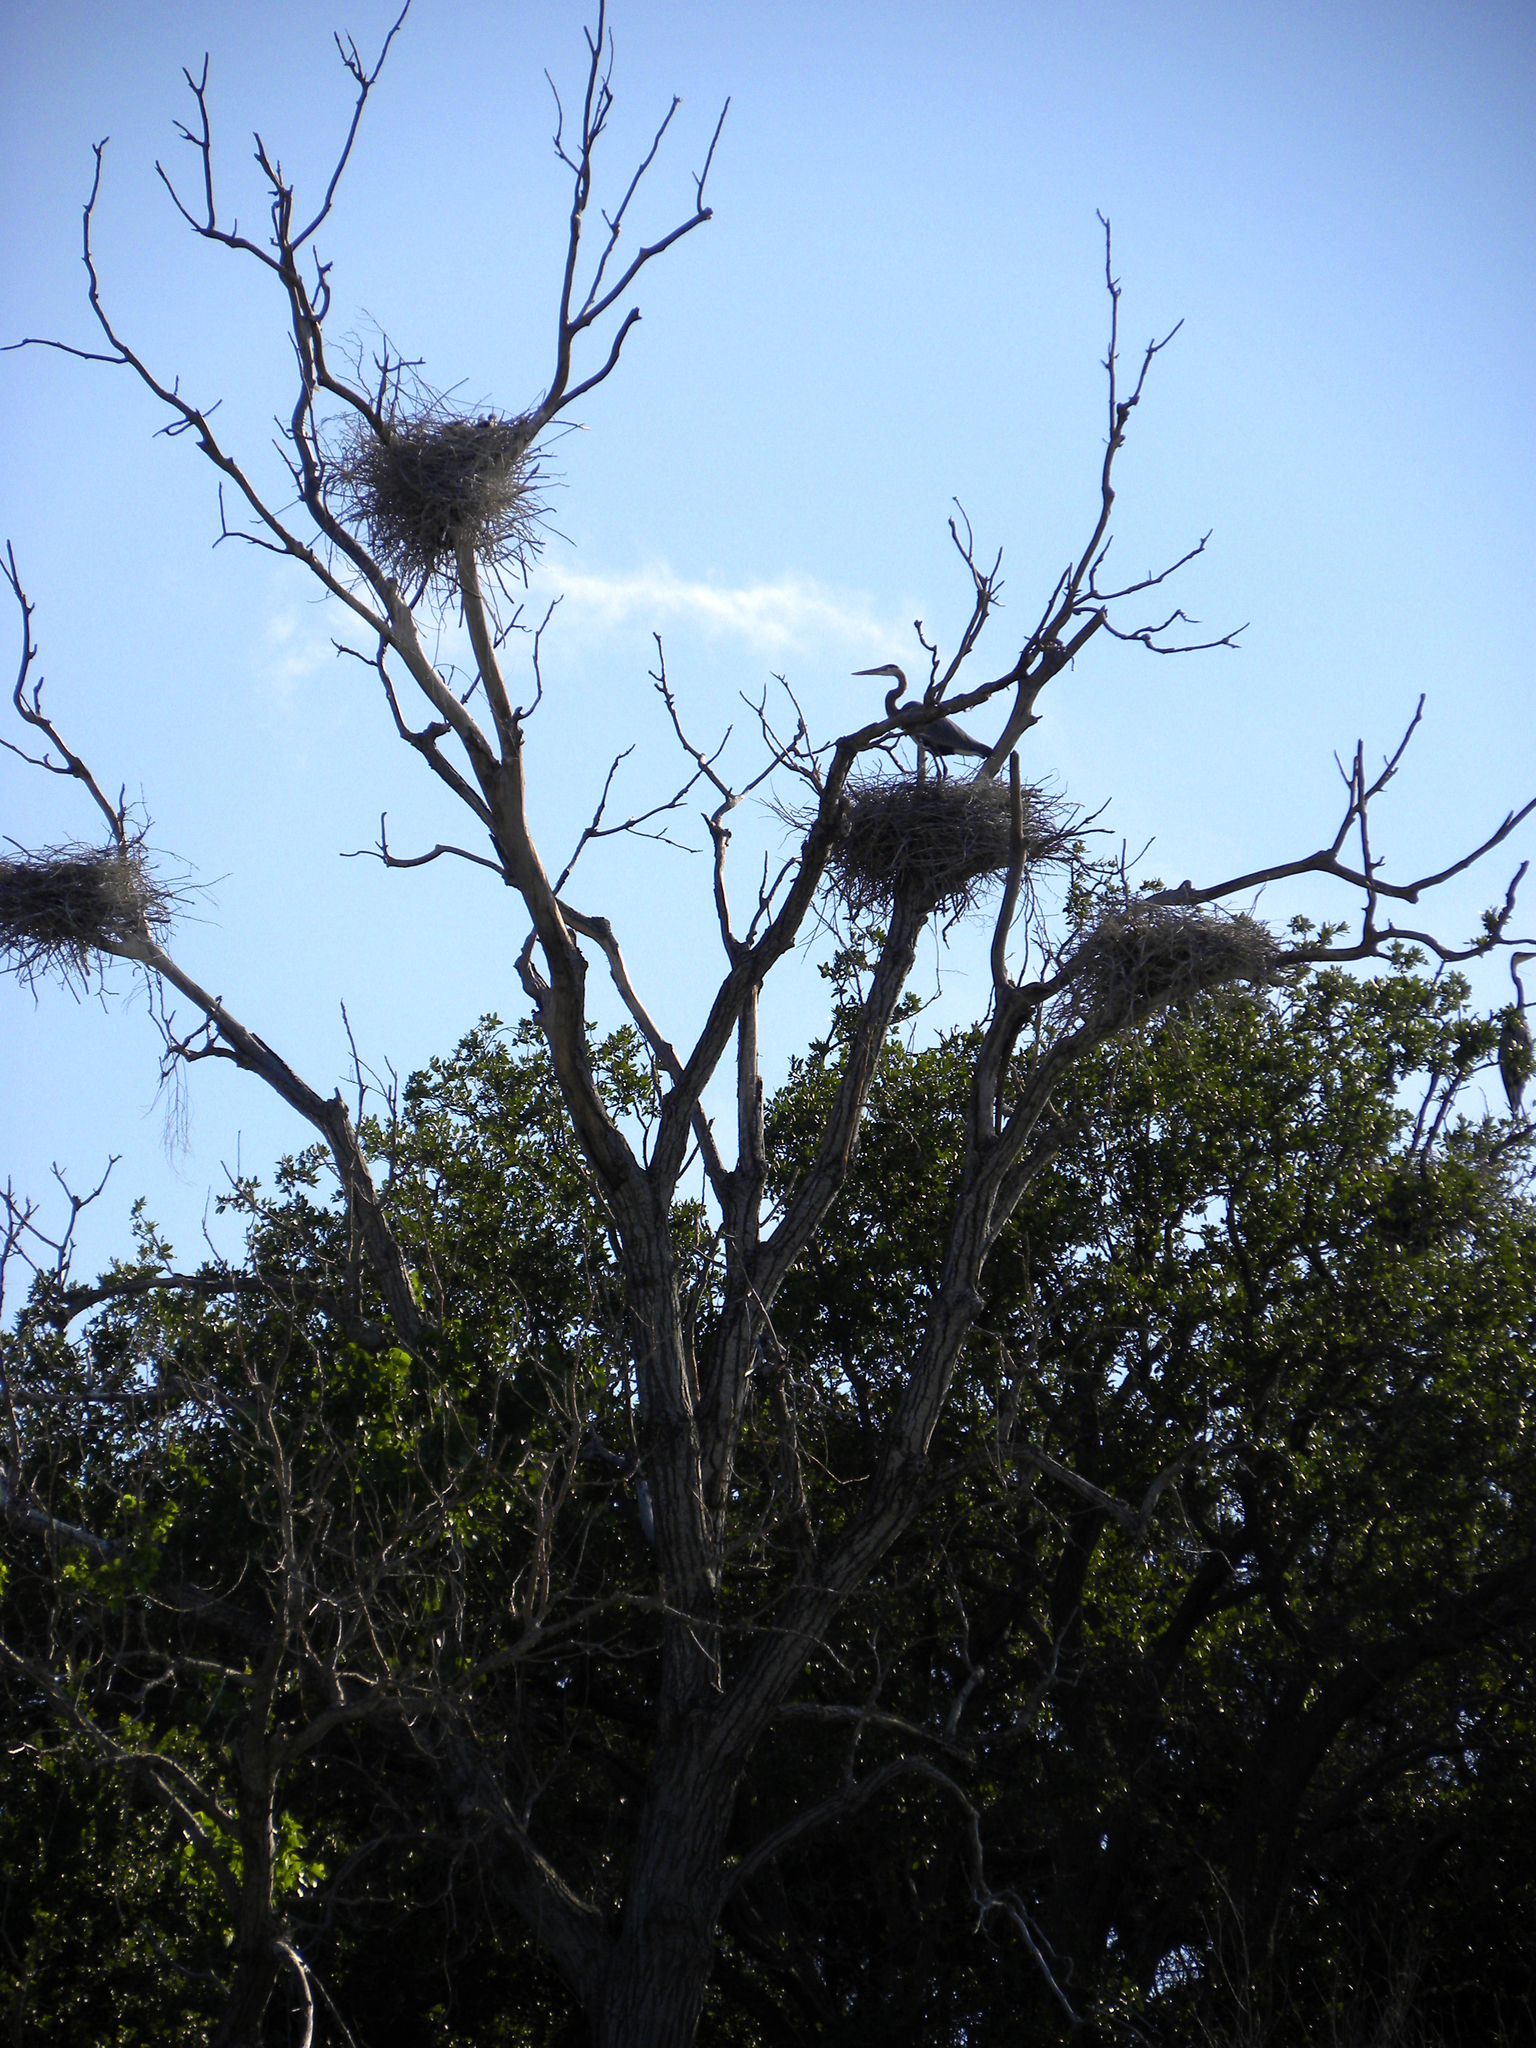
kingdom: Animalia
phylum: Chordata
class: Aves
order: Pelecaniformes
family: Ardeidae
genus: Ardea
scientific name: Ardea herodias
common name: Great blue heron
